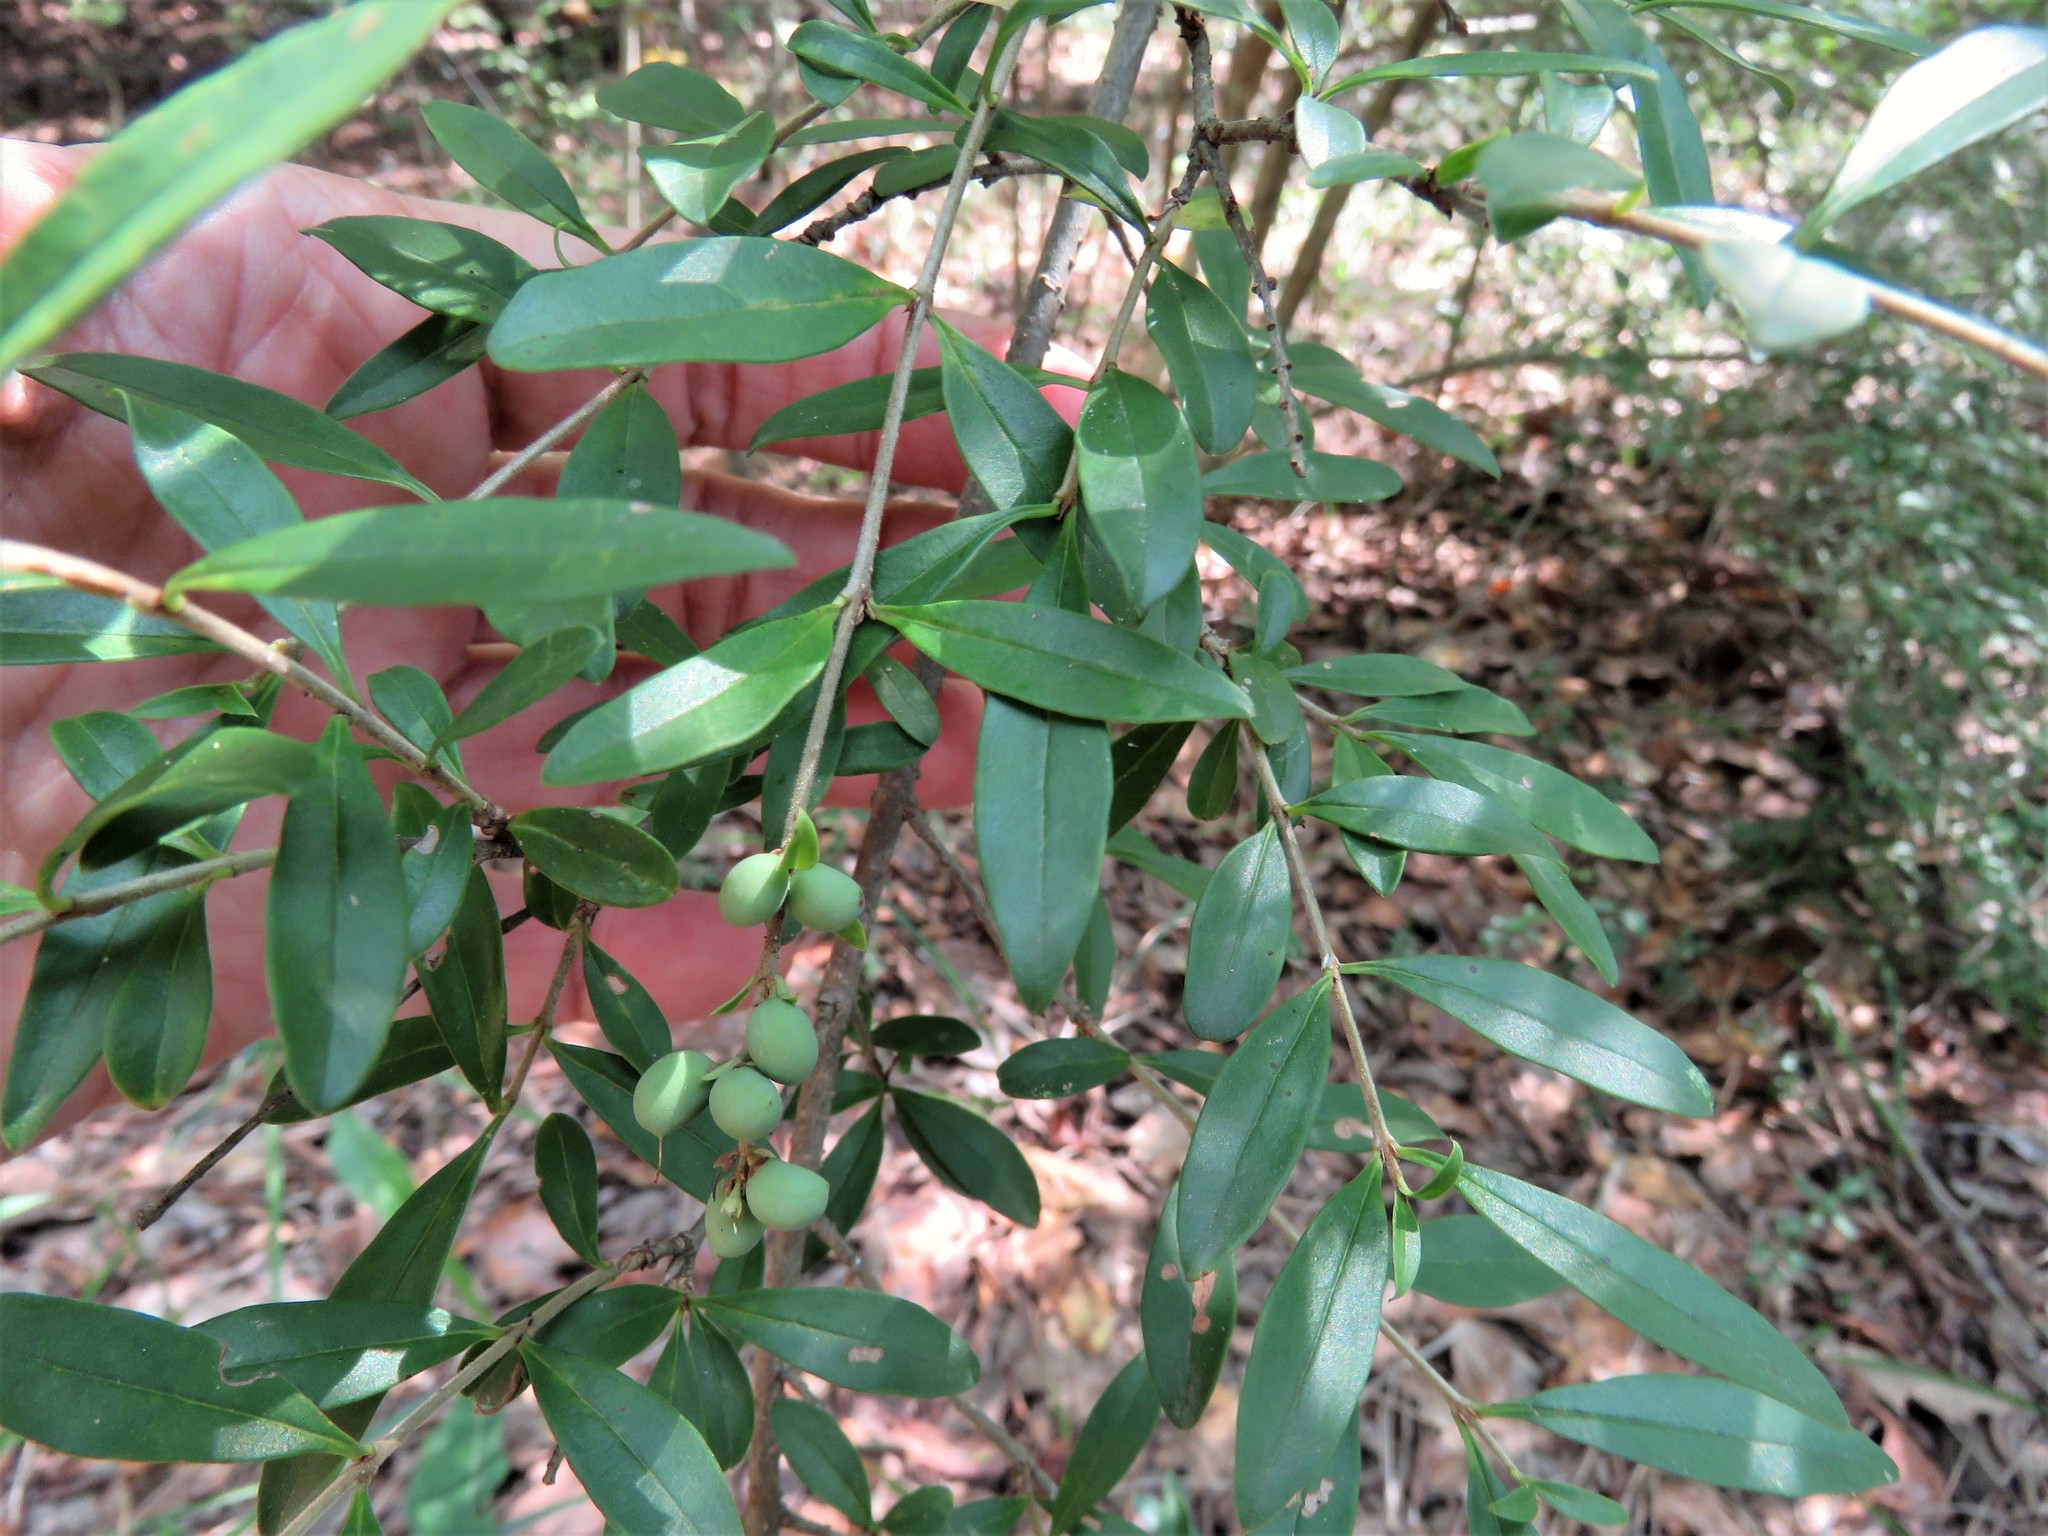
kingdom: Plantae
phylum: Tracheophyta
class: Magnoliopsida
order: Lamiales
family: Oleaceae
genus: Ligustrum
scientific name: Ligustrum quihoui
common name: Waxyleaf privet
